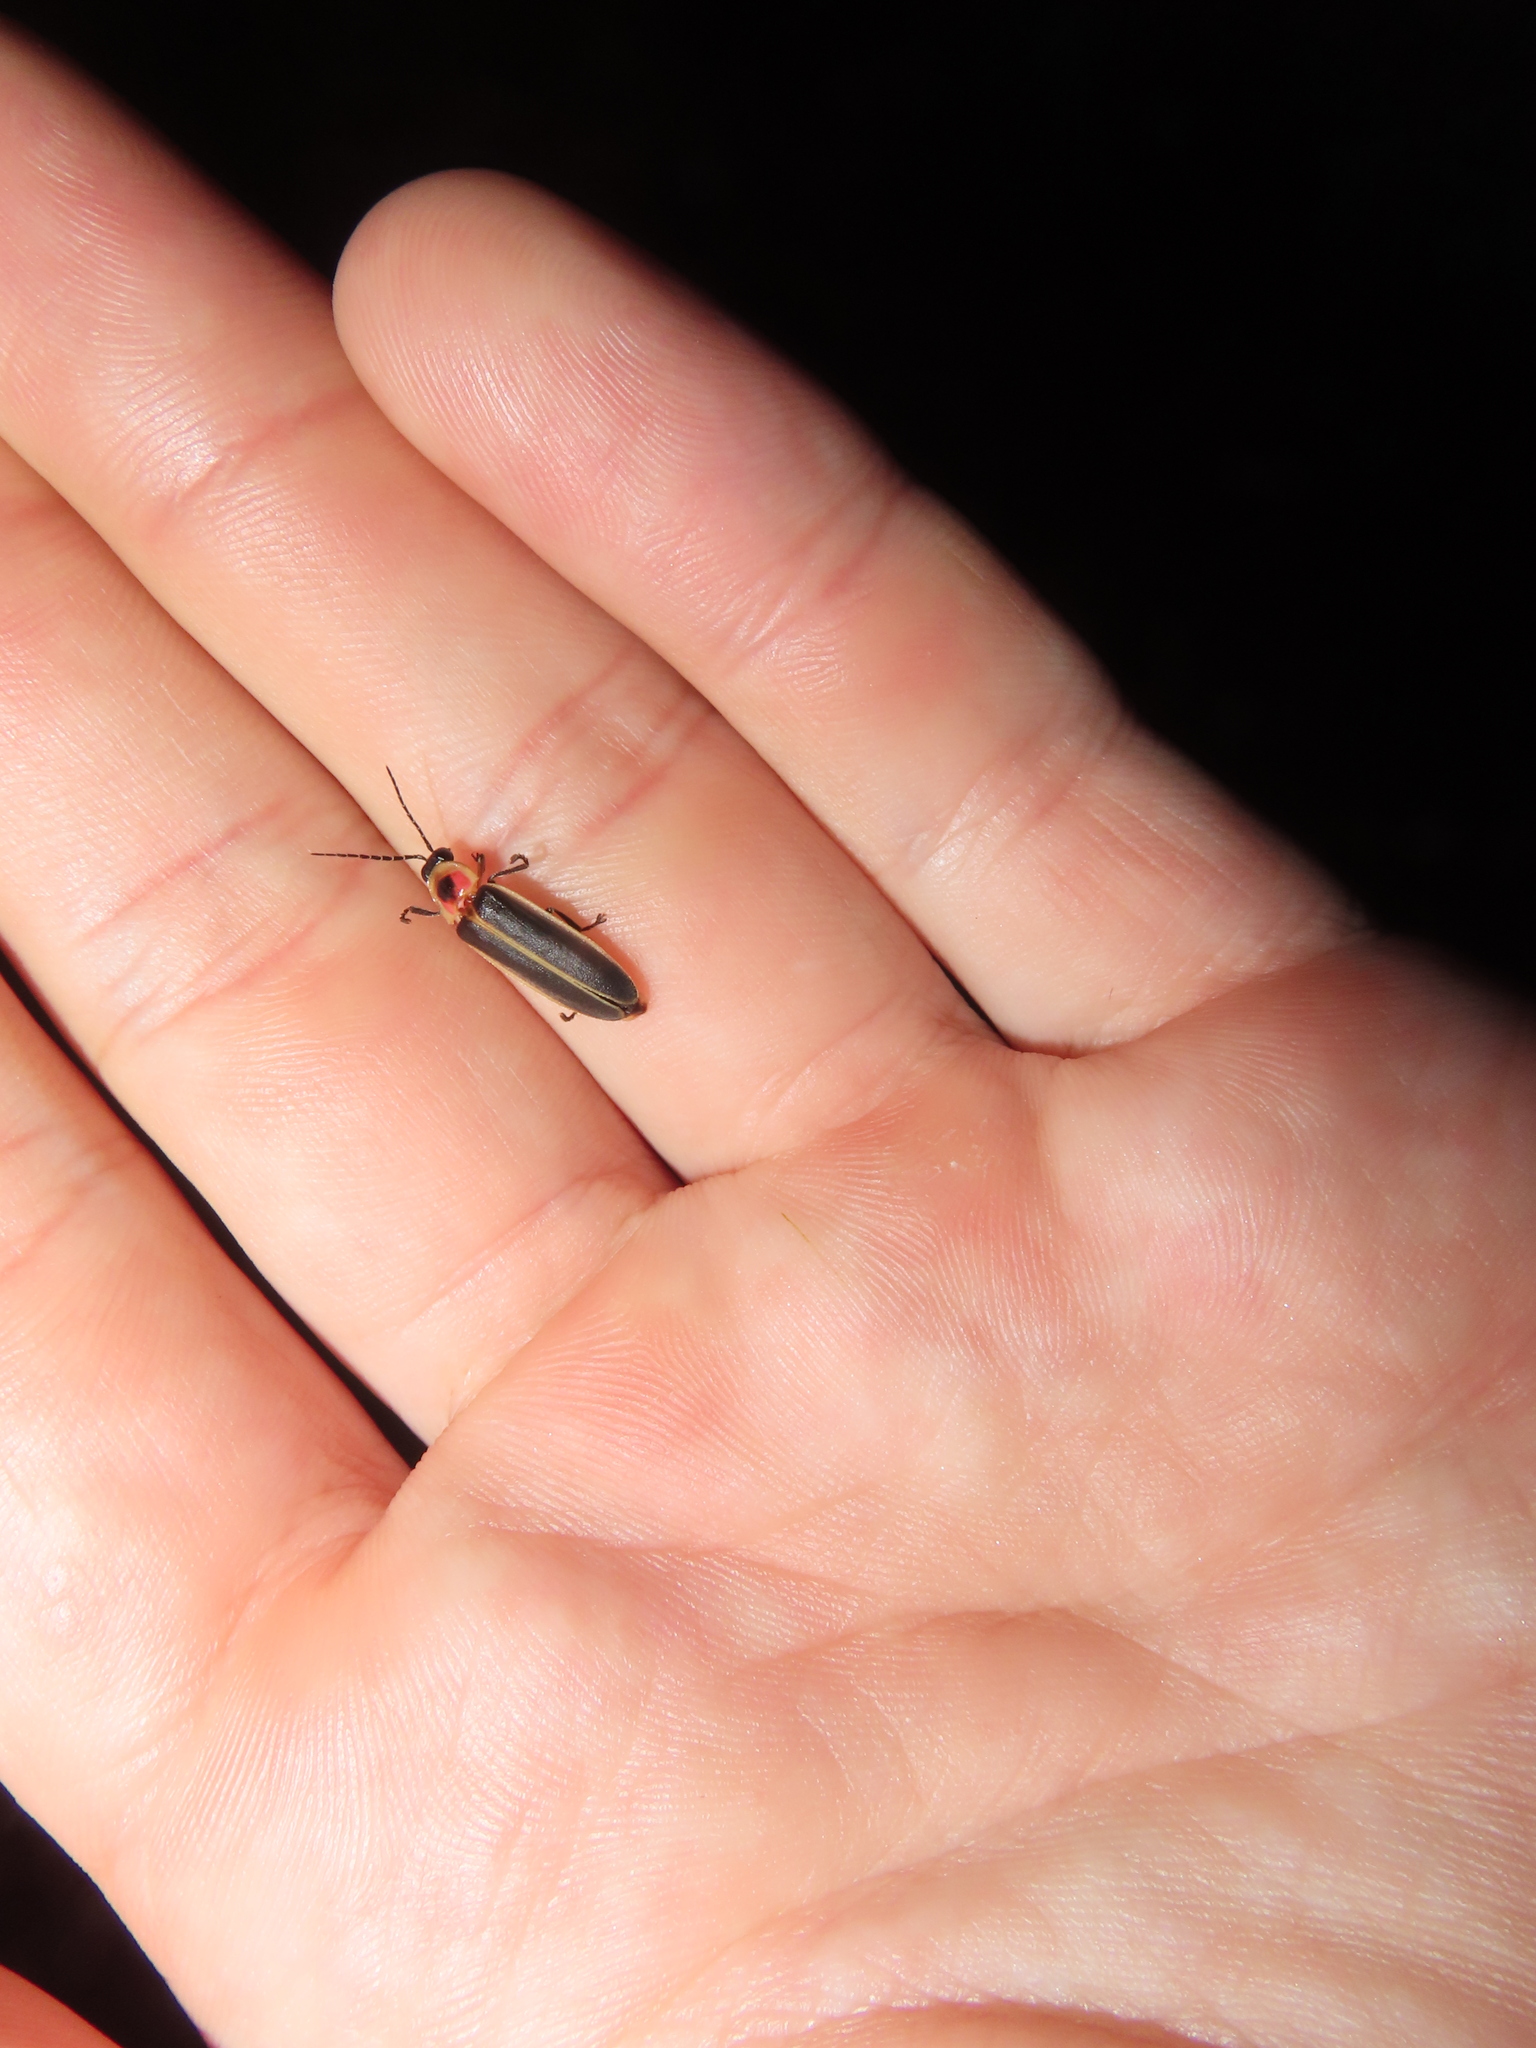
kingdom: Animalia
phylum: Arthropoda
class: Insecta
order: Coleoptera
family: Lampyridae
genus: Photinus
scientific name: Photinus pyralis
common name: Big dipper firefly
